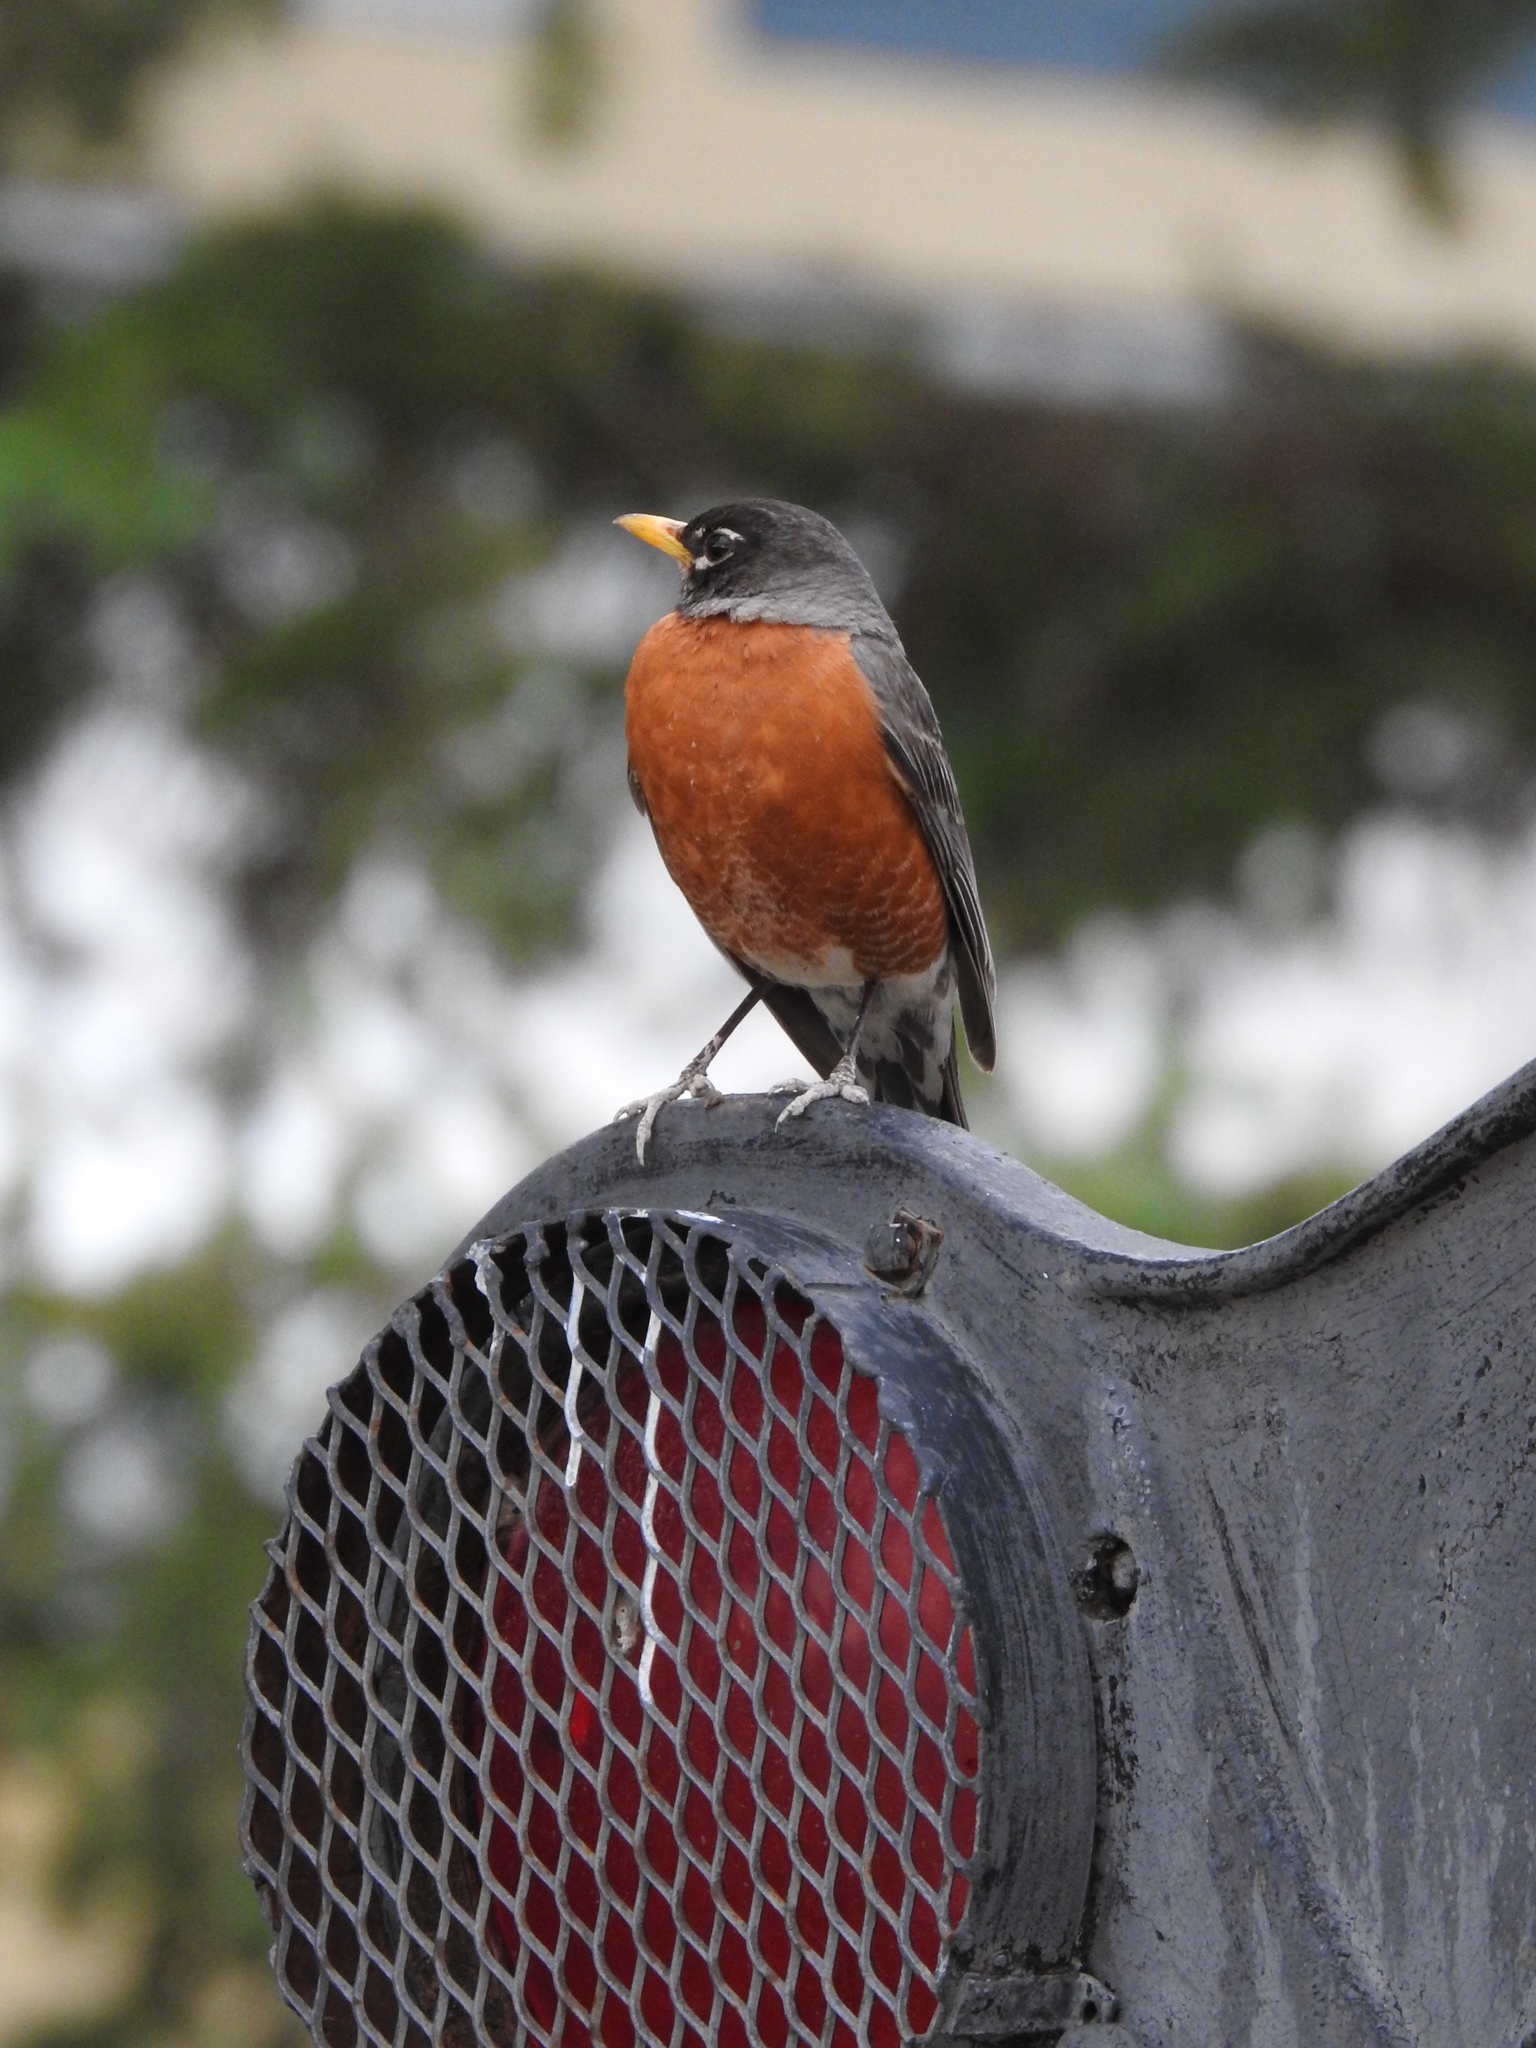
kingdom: Animalia
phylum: Chordata
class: Aves
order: Passeriformes
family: Turdidae
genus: Turdus
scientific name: Turdus migratorius
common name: American robin
